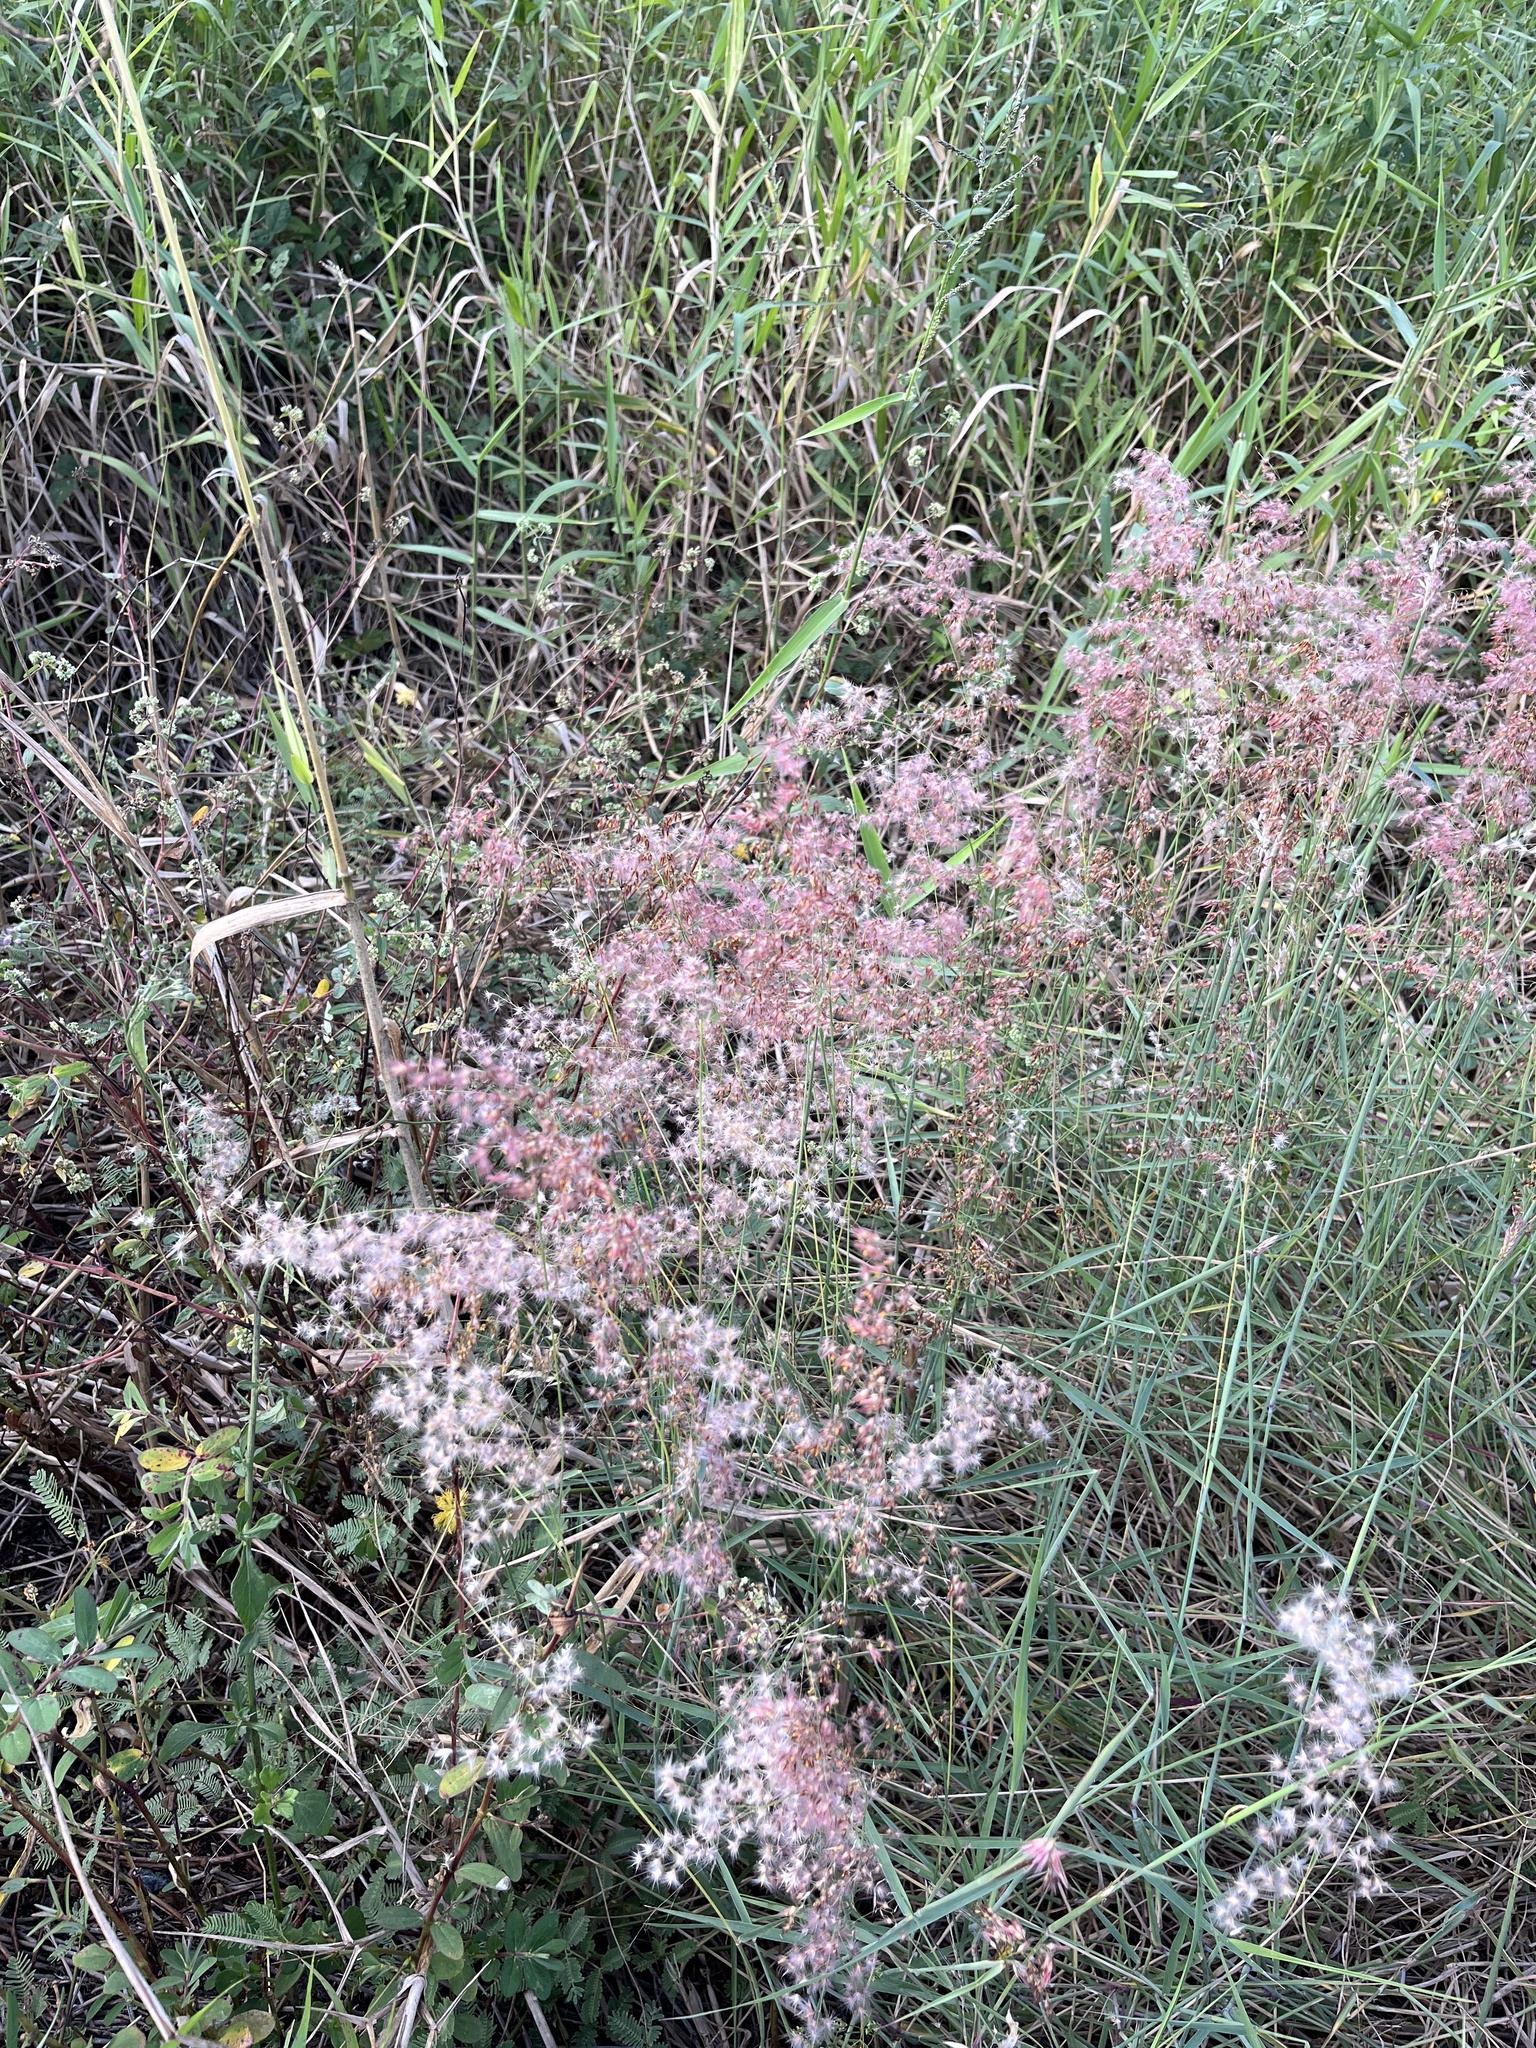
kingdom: Plantae
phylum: Tracheophyta
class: Liliopsida
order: Poales
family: Poaceae
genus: Melinis
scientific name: Melinis repens
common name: Rose natal grass
